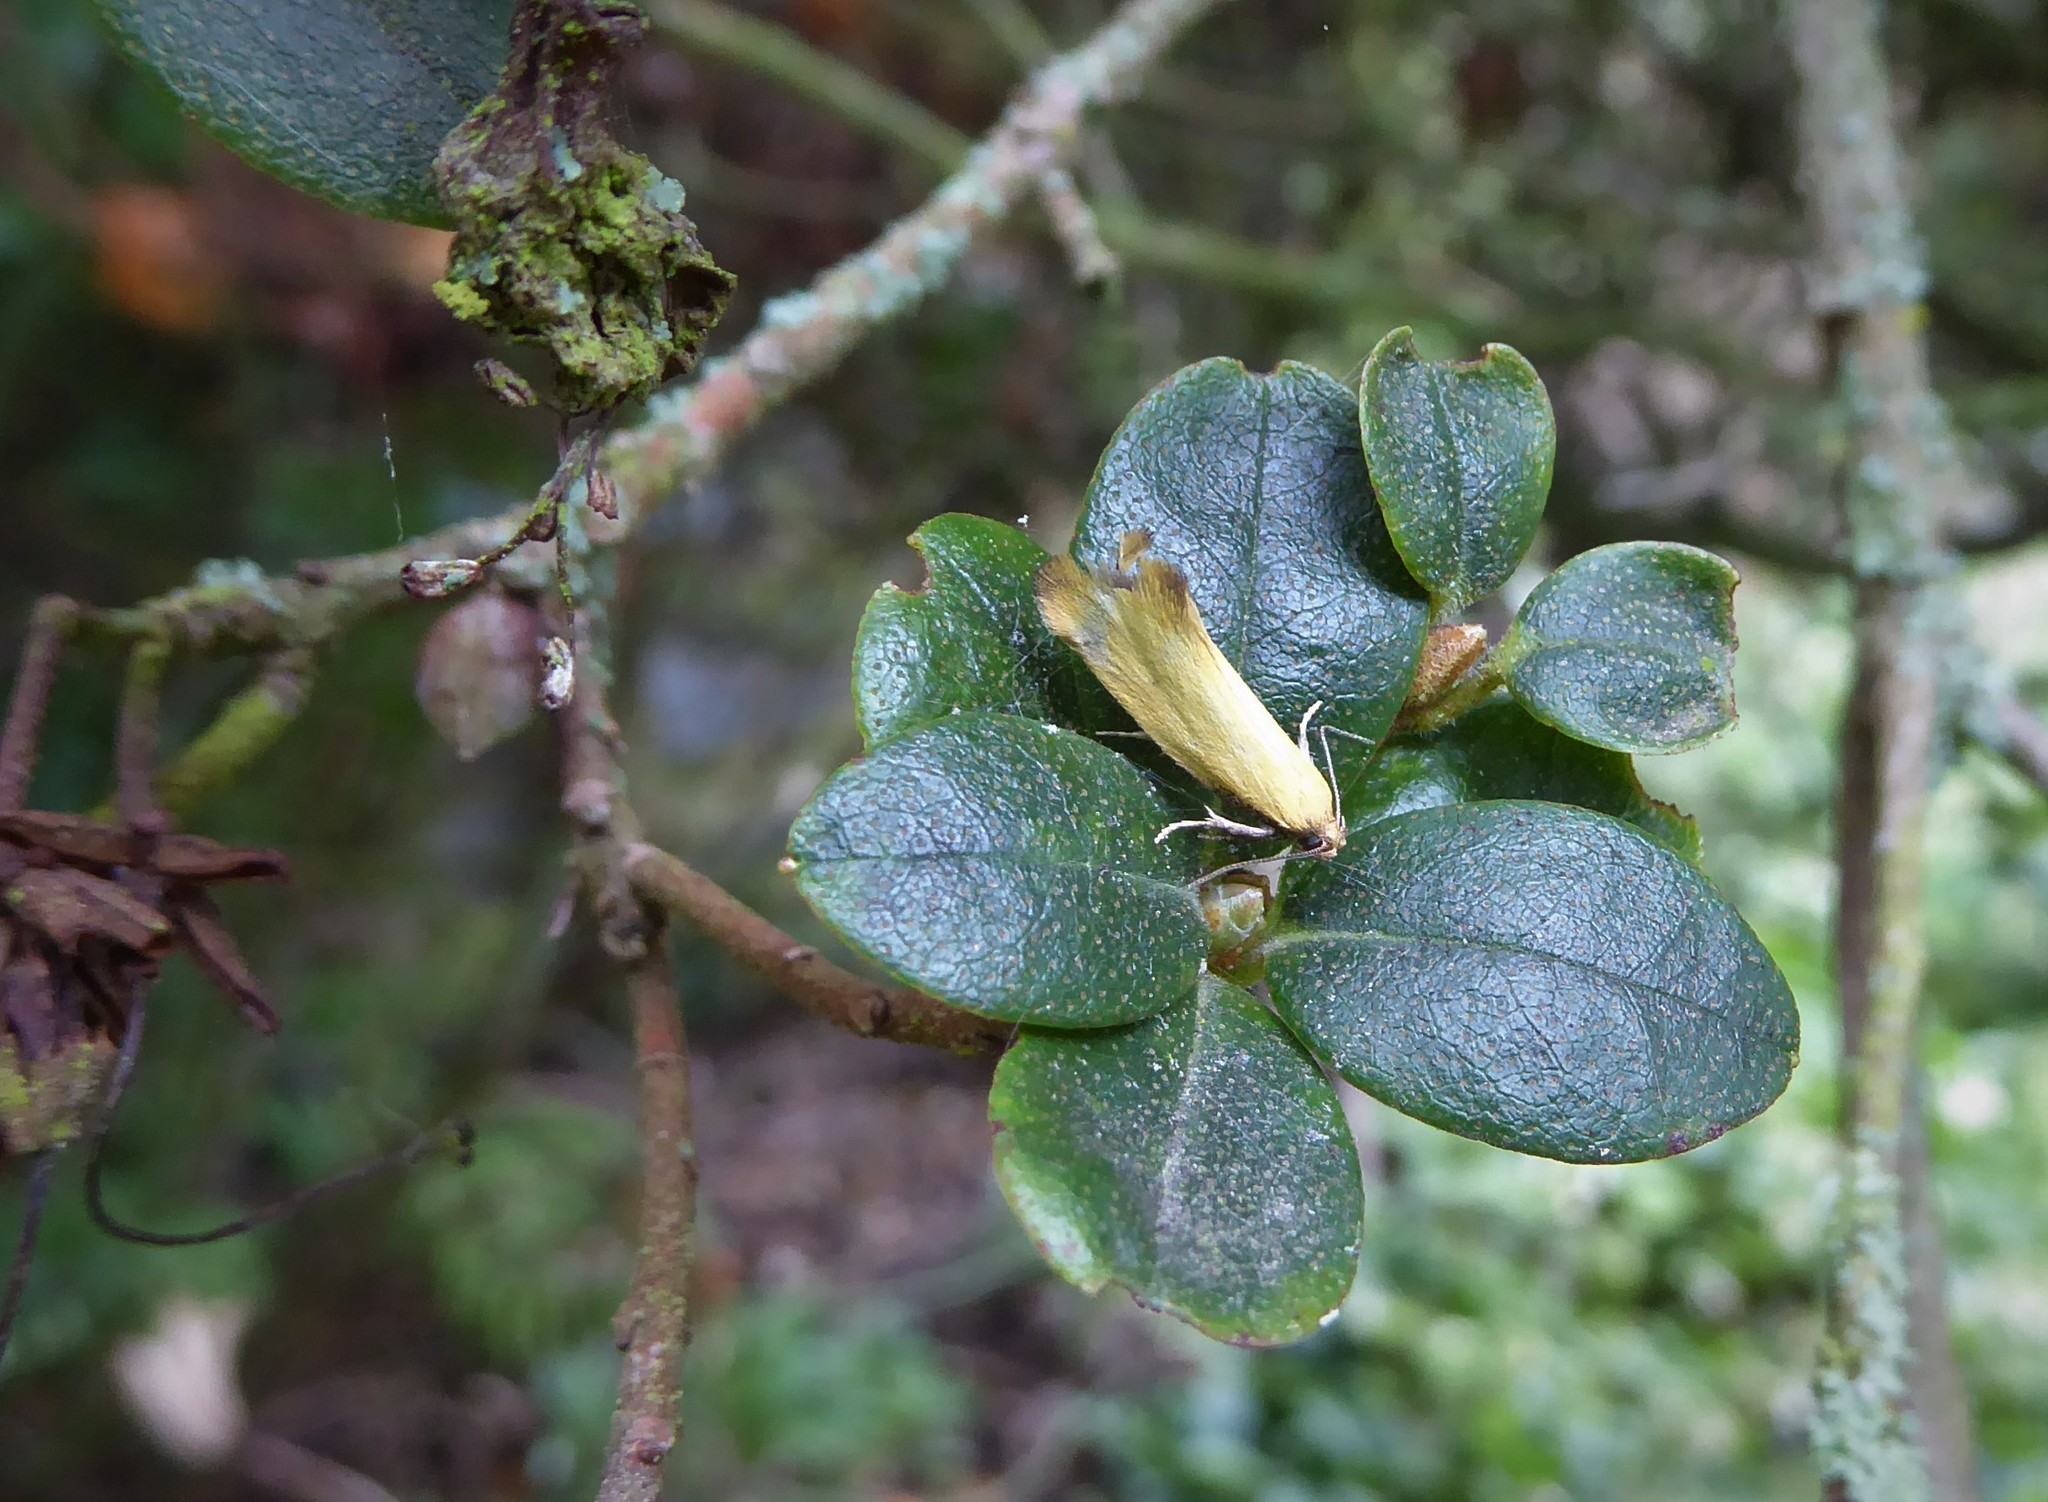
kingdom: Animalia
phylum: Arthropoda
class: Insecta
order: Lepidoptera
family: Oecophoridae
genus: Tingena
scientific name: Tingena actinias
